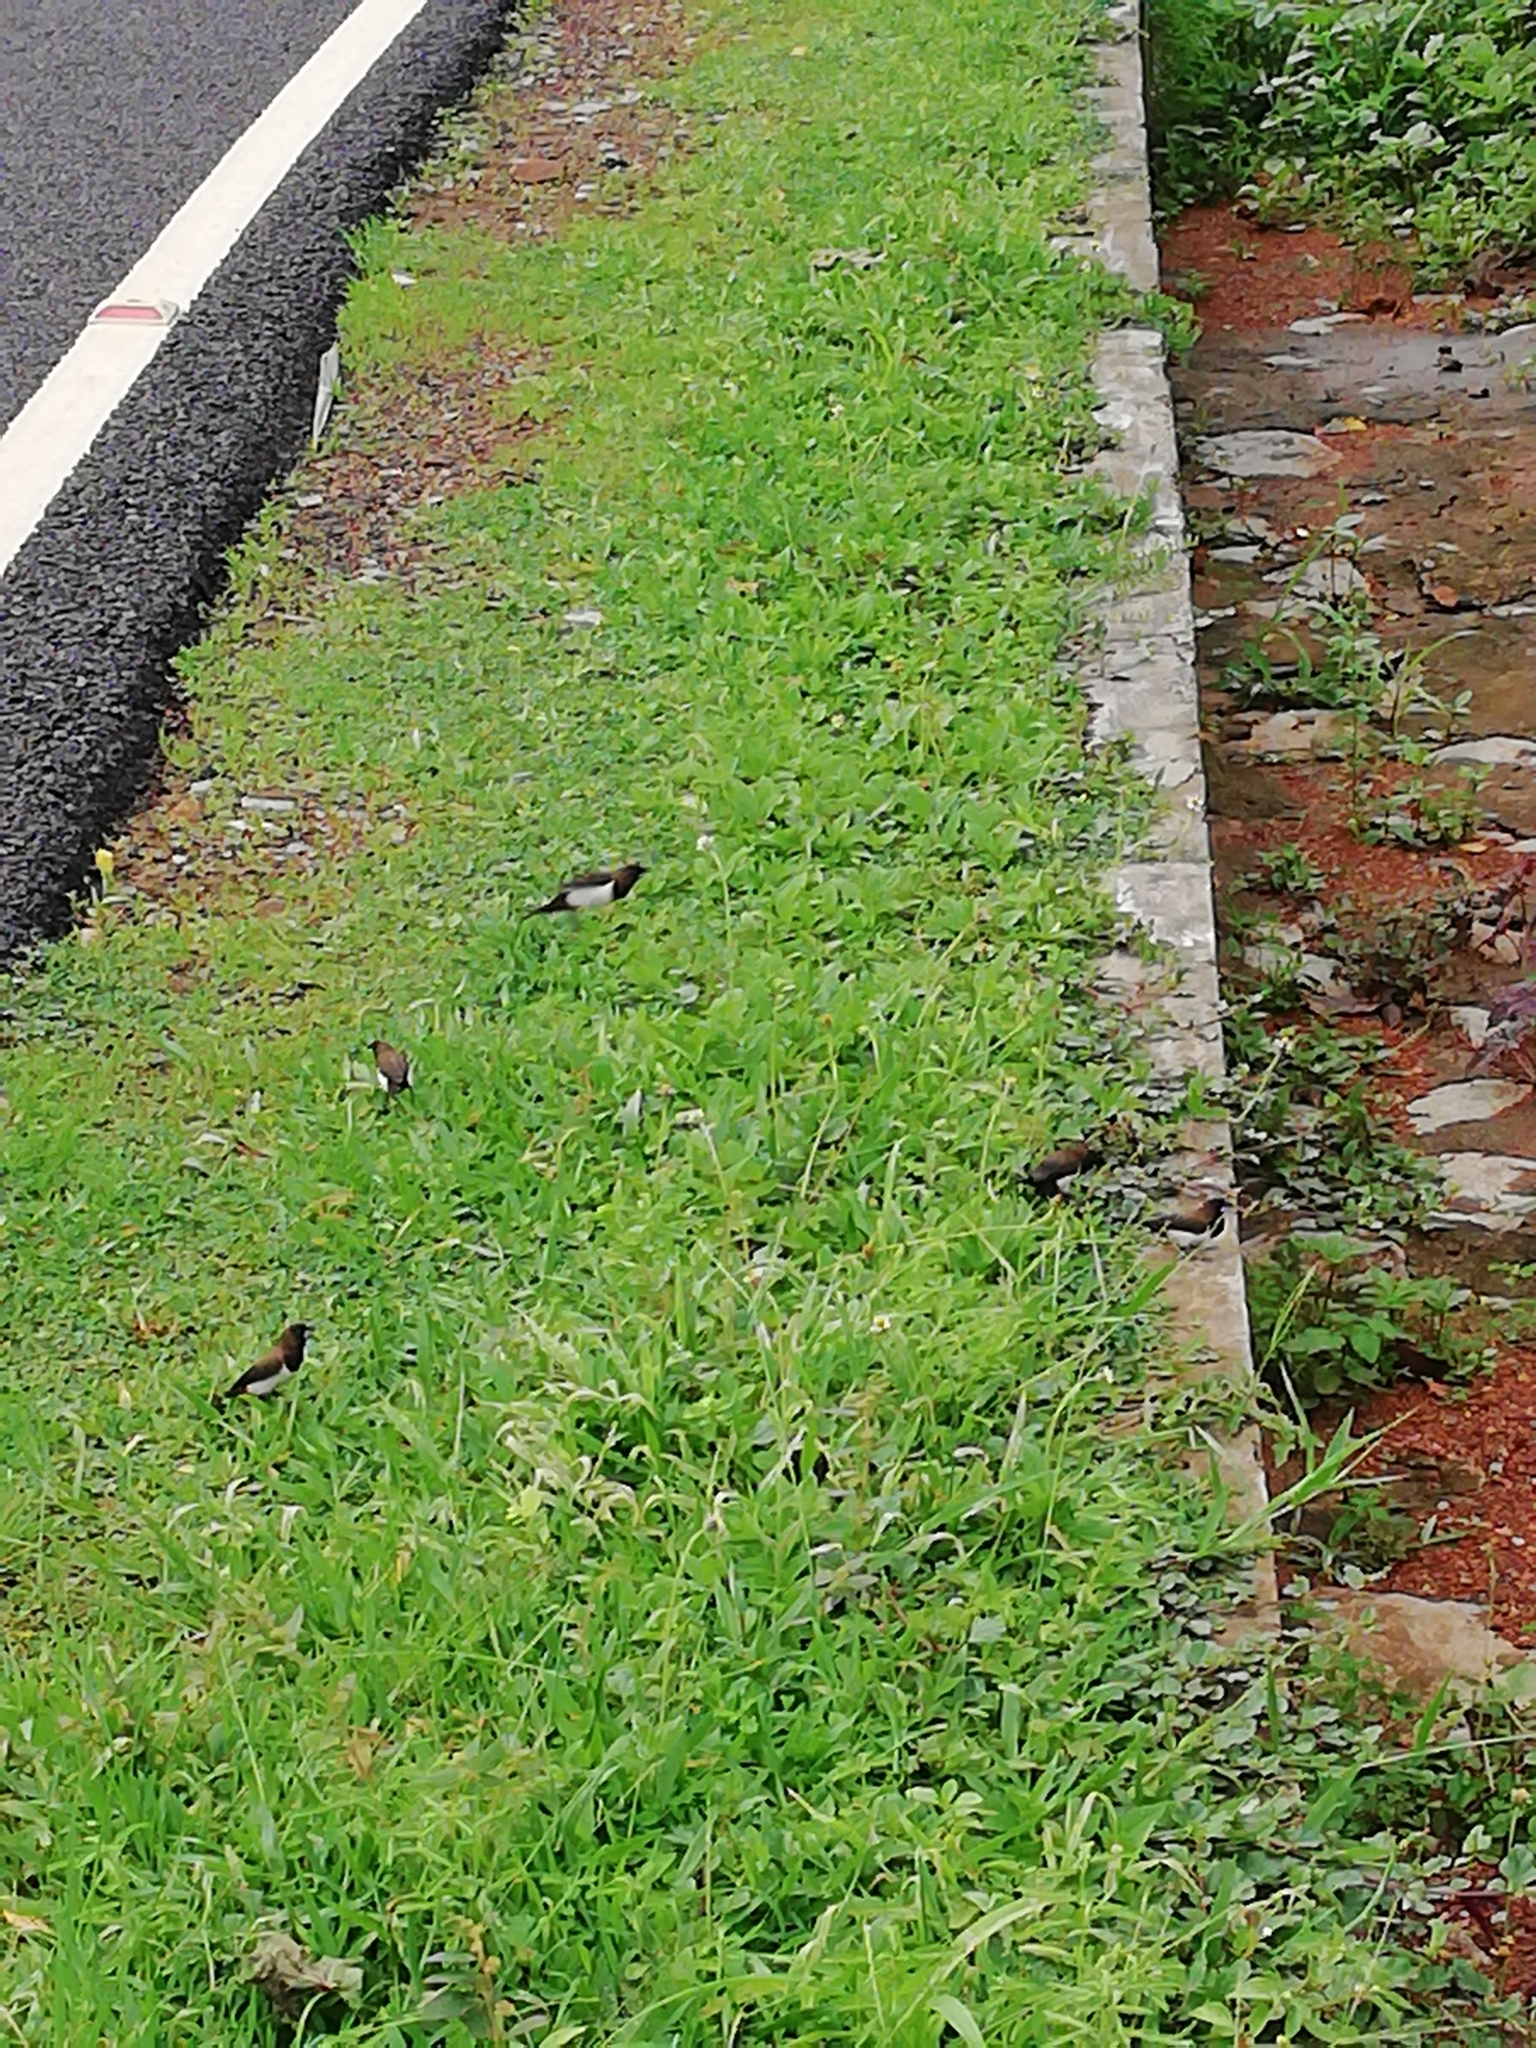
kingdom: Animalia
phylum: Chordata
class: Aves
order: Passeriformes
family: Estrildidae
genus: Lonchura
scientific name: Lonchura striata
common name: White-rumped munia
